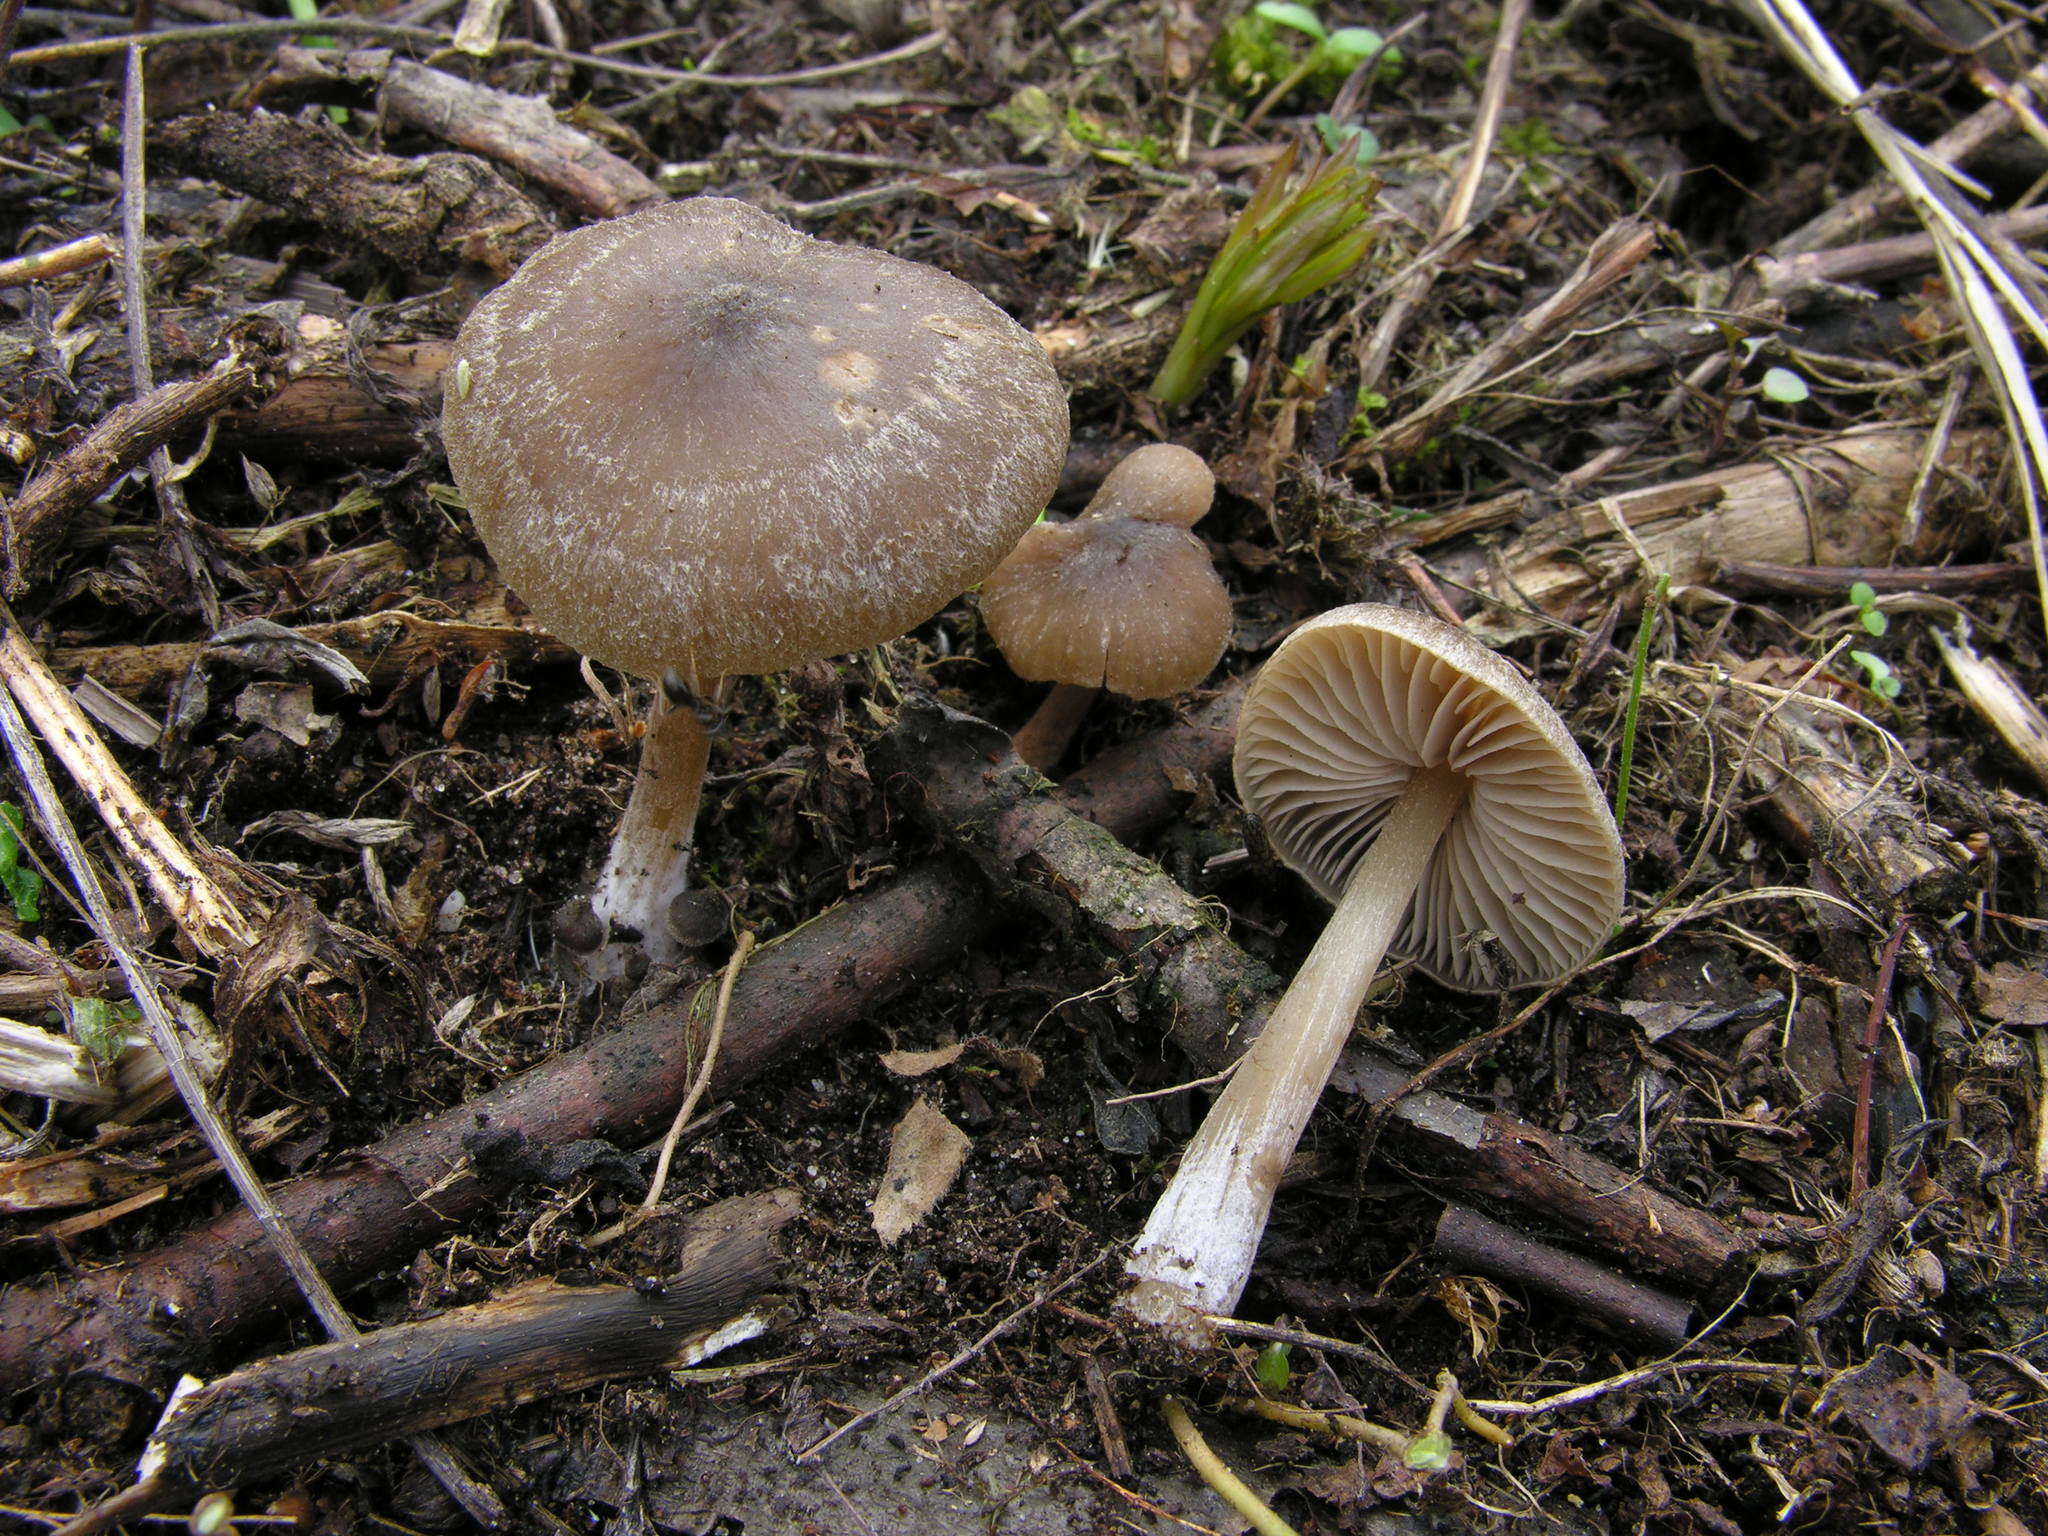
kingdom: Fungi
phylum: Basidiomycota
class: Agaricomycetes
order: Agaricales
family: Entolomataceae
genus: Entoloma
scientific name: Entoloma vernum
